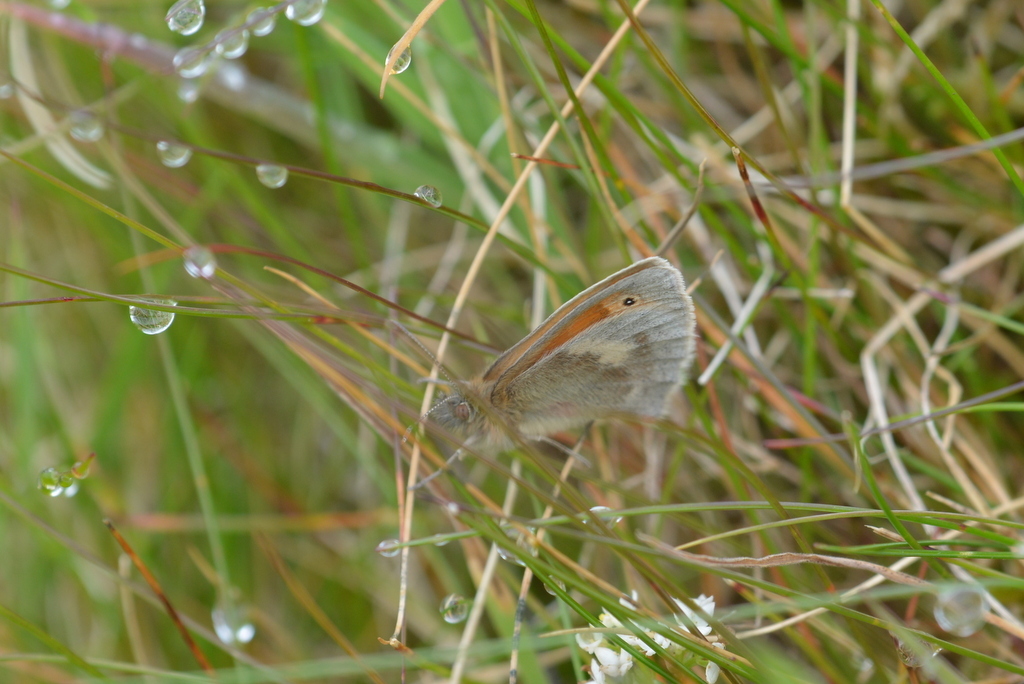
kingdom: Animalia
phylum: Arthropoda
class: Insecta
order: Lepidoptera
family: Nymphalidae
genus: Coenonympha
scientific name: Coenonympha pamphilus
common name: Small heath
